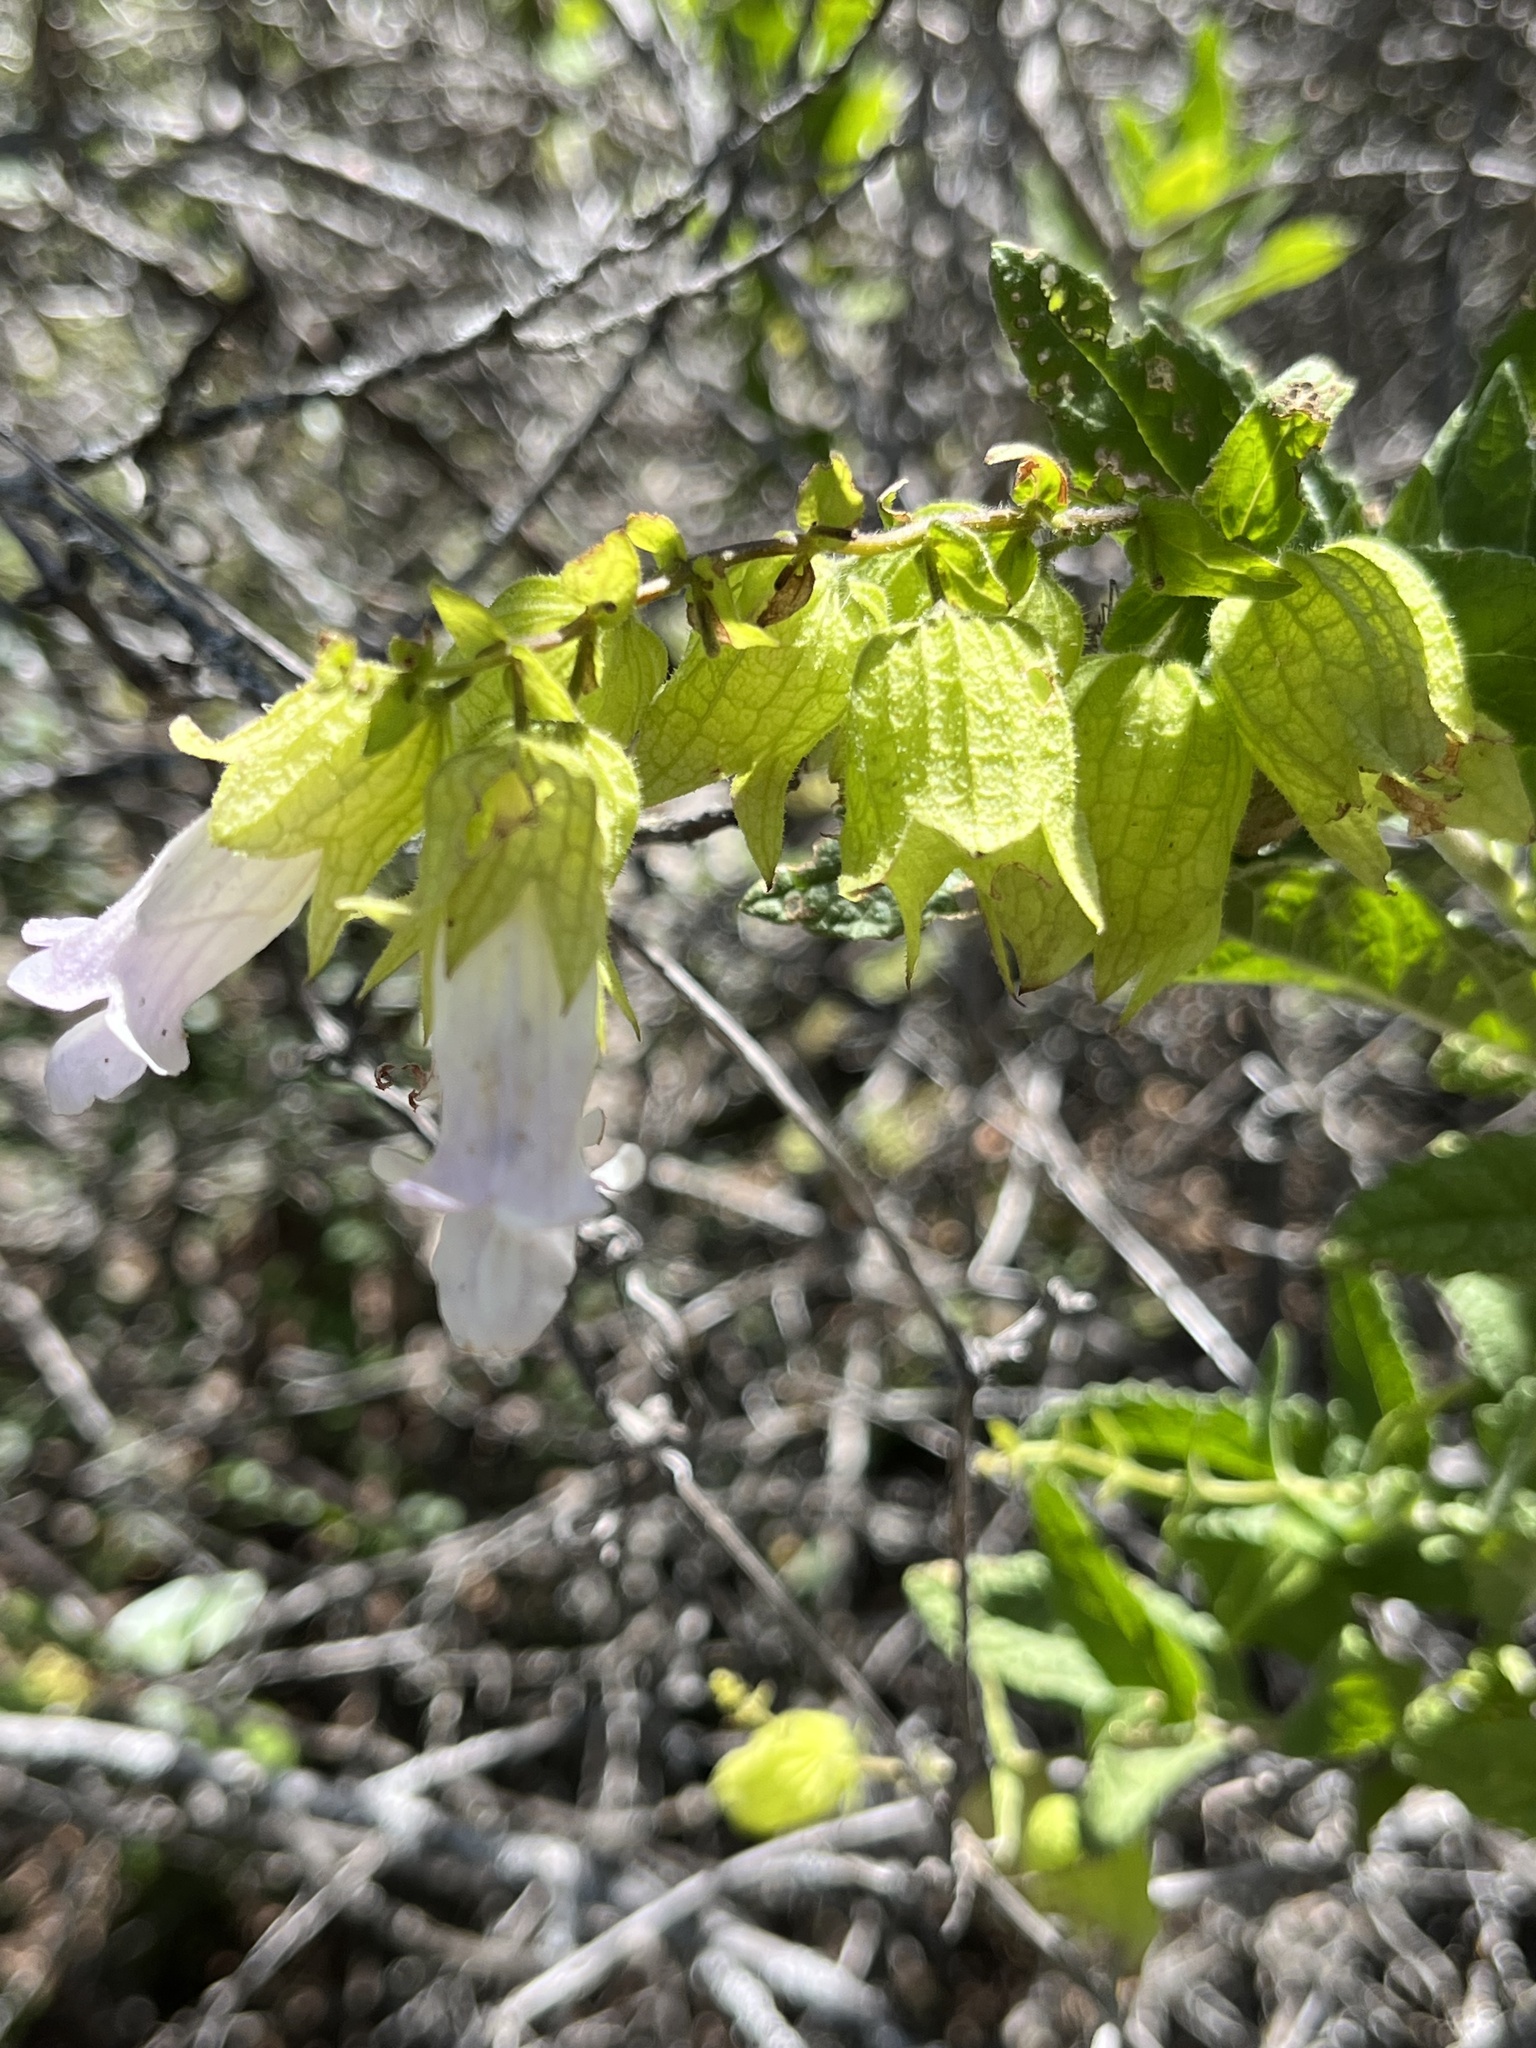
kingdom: Plantae
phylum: Tracheophyta
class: Magnoliopsida
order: Lamiales
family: Lamiaceae
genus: Lepechinia
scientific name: Lepechinia calycina
